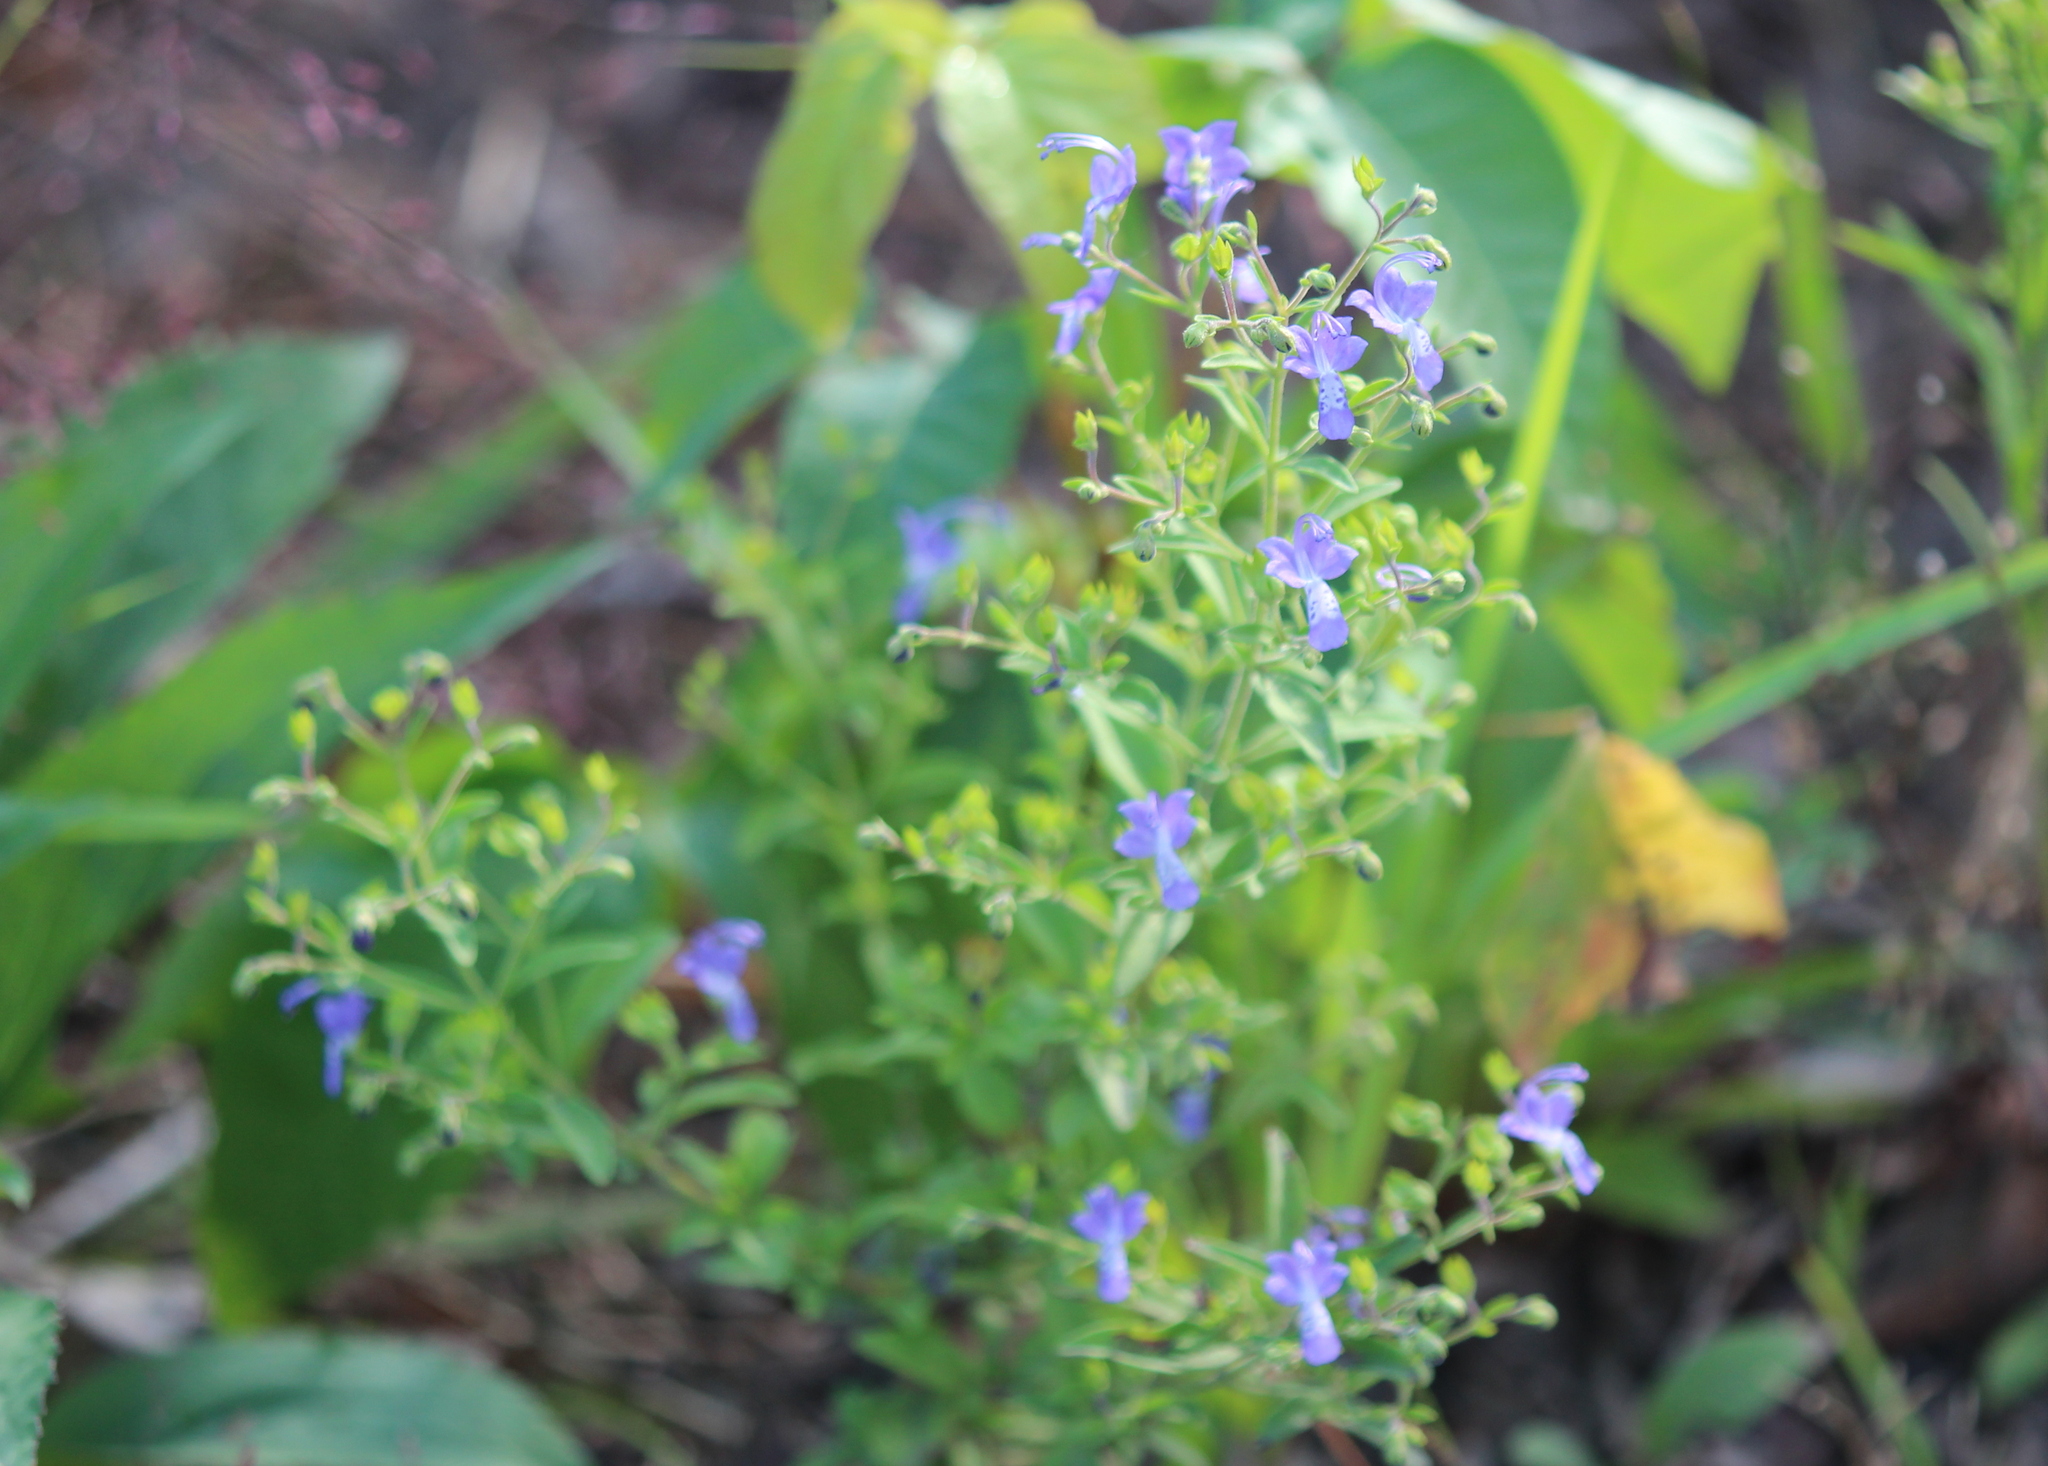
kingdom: Plantae
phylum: Tracheophyta
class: Magnoliopsida
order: Lamiales
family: Lamiaceae
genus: Trichostema
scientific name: Trichostema dichotomum
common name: Bastard pennyroyal
